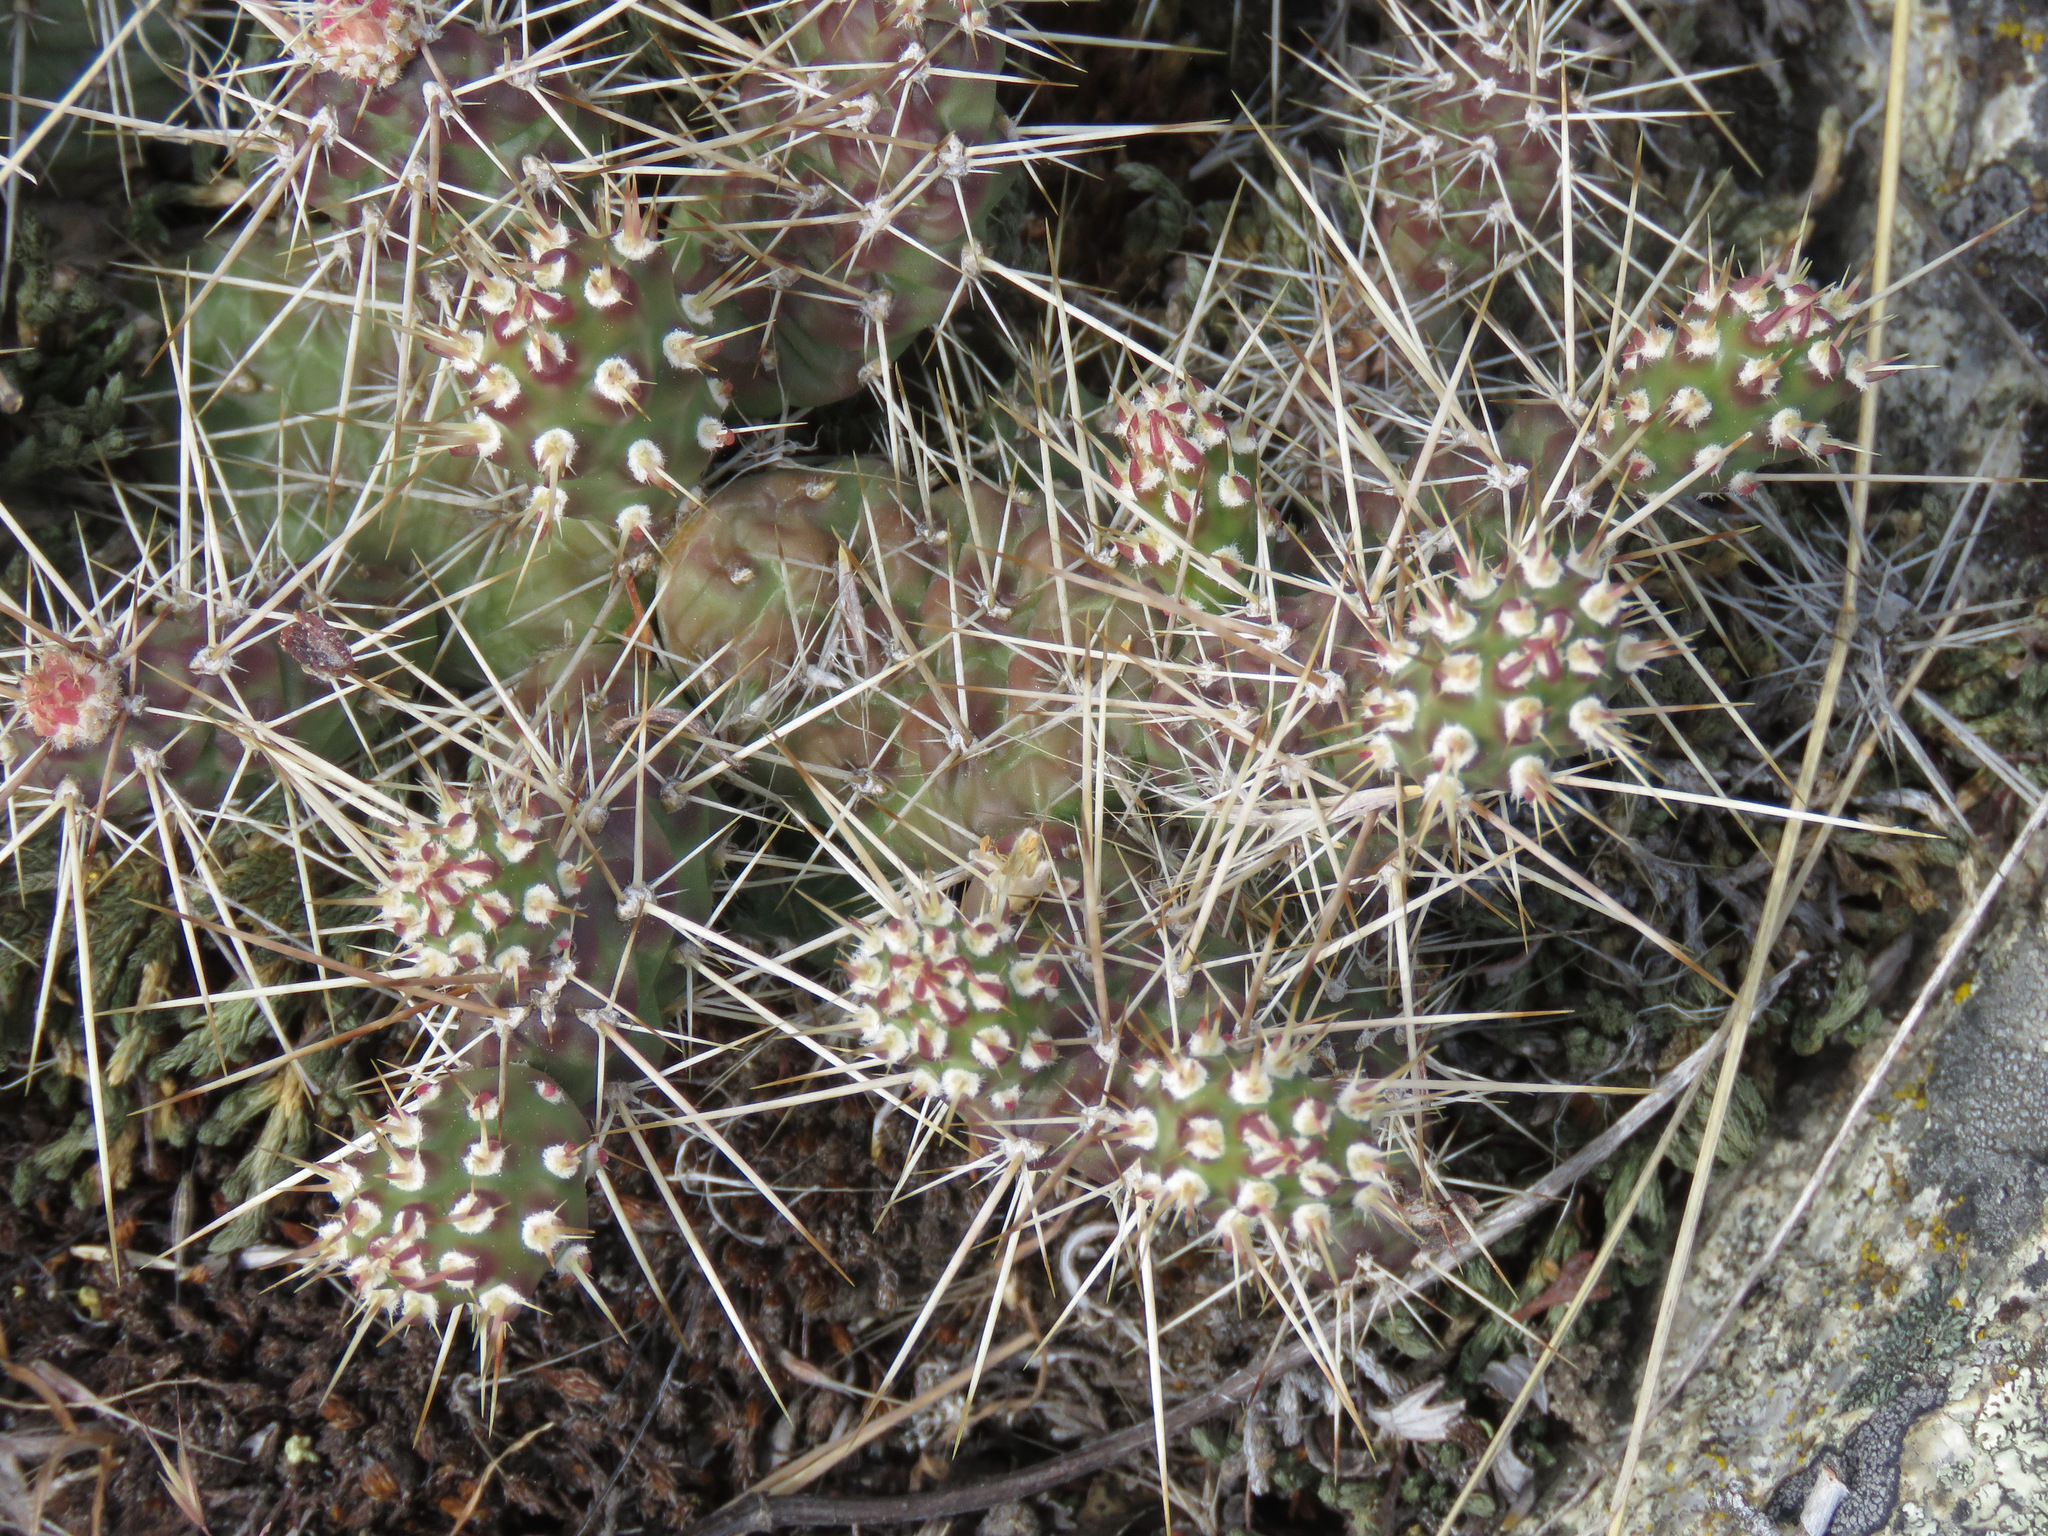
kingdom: Plantae
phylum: Tracheophyta
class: Magnoliopsida
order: Caryophyllales
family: Cactaceae
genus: Opuntia
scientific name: Opuntia fragilis
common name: Brittle cactus
